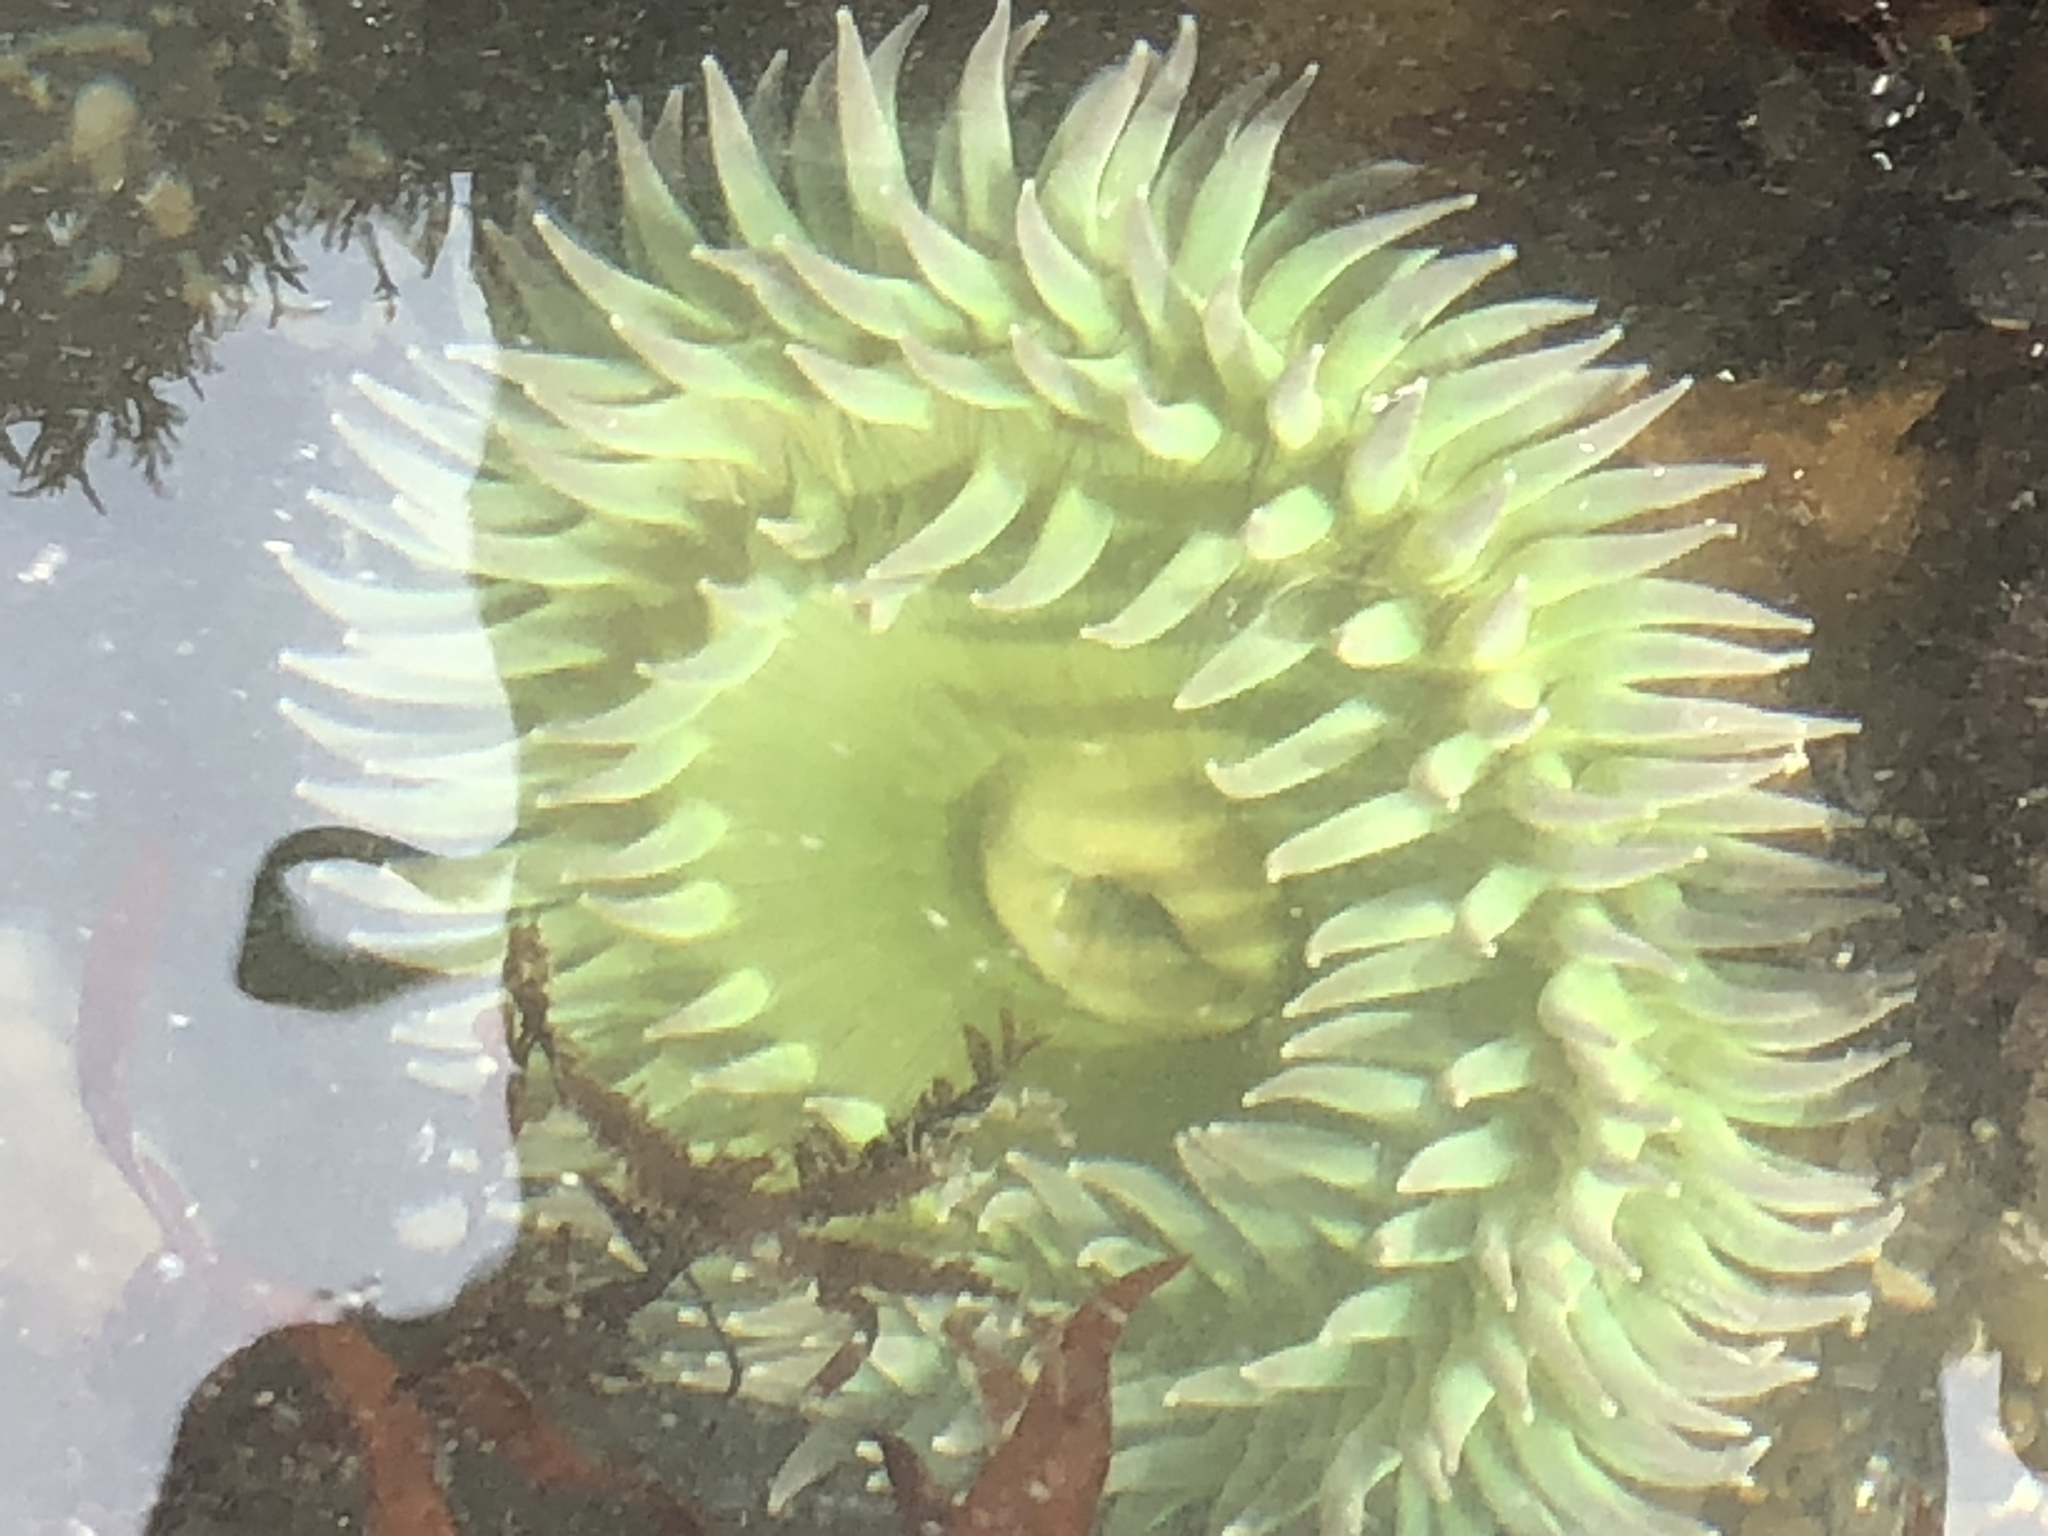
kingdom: Animalia
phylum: Cnidaria
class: Anthozoa
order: Actiniaria
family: Actiniidae
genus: Anthopleura
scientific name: Anthopleura xanthogrammica
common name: Giant green anemone
